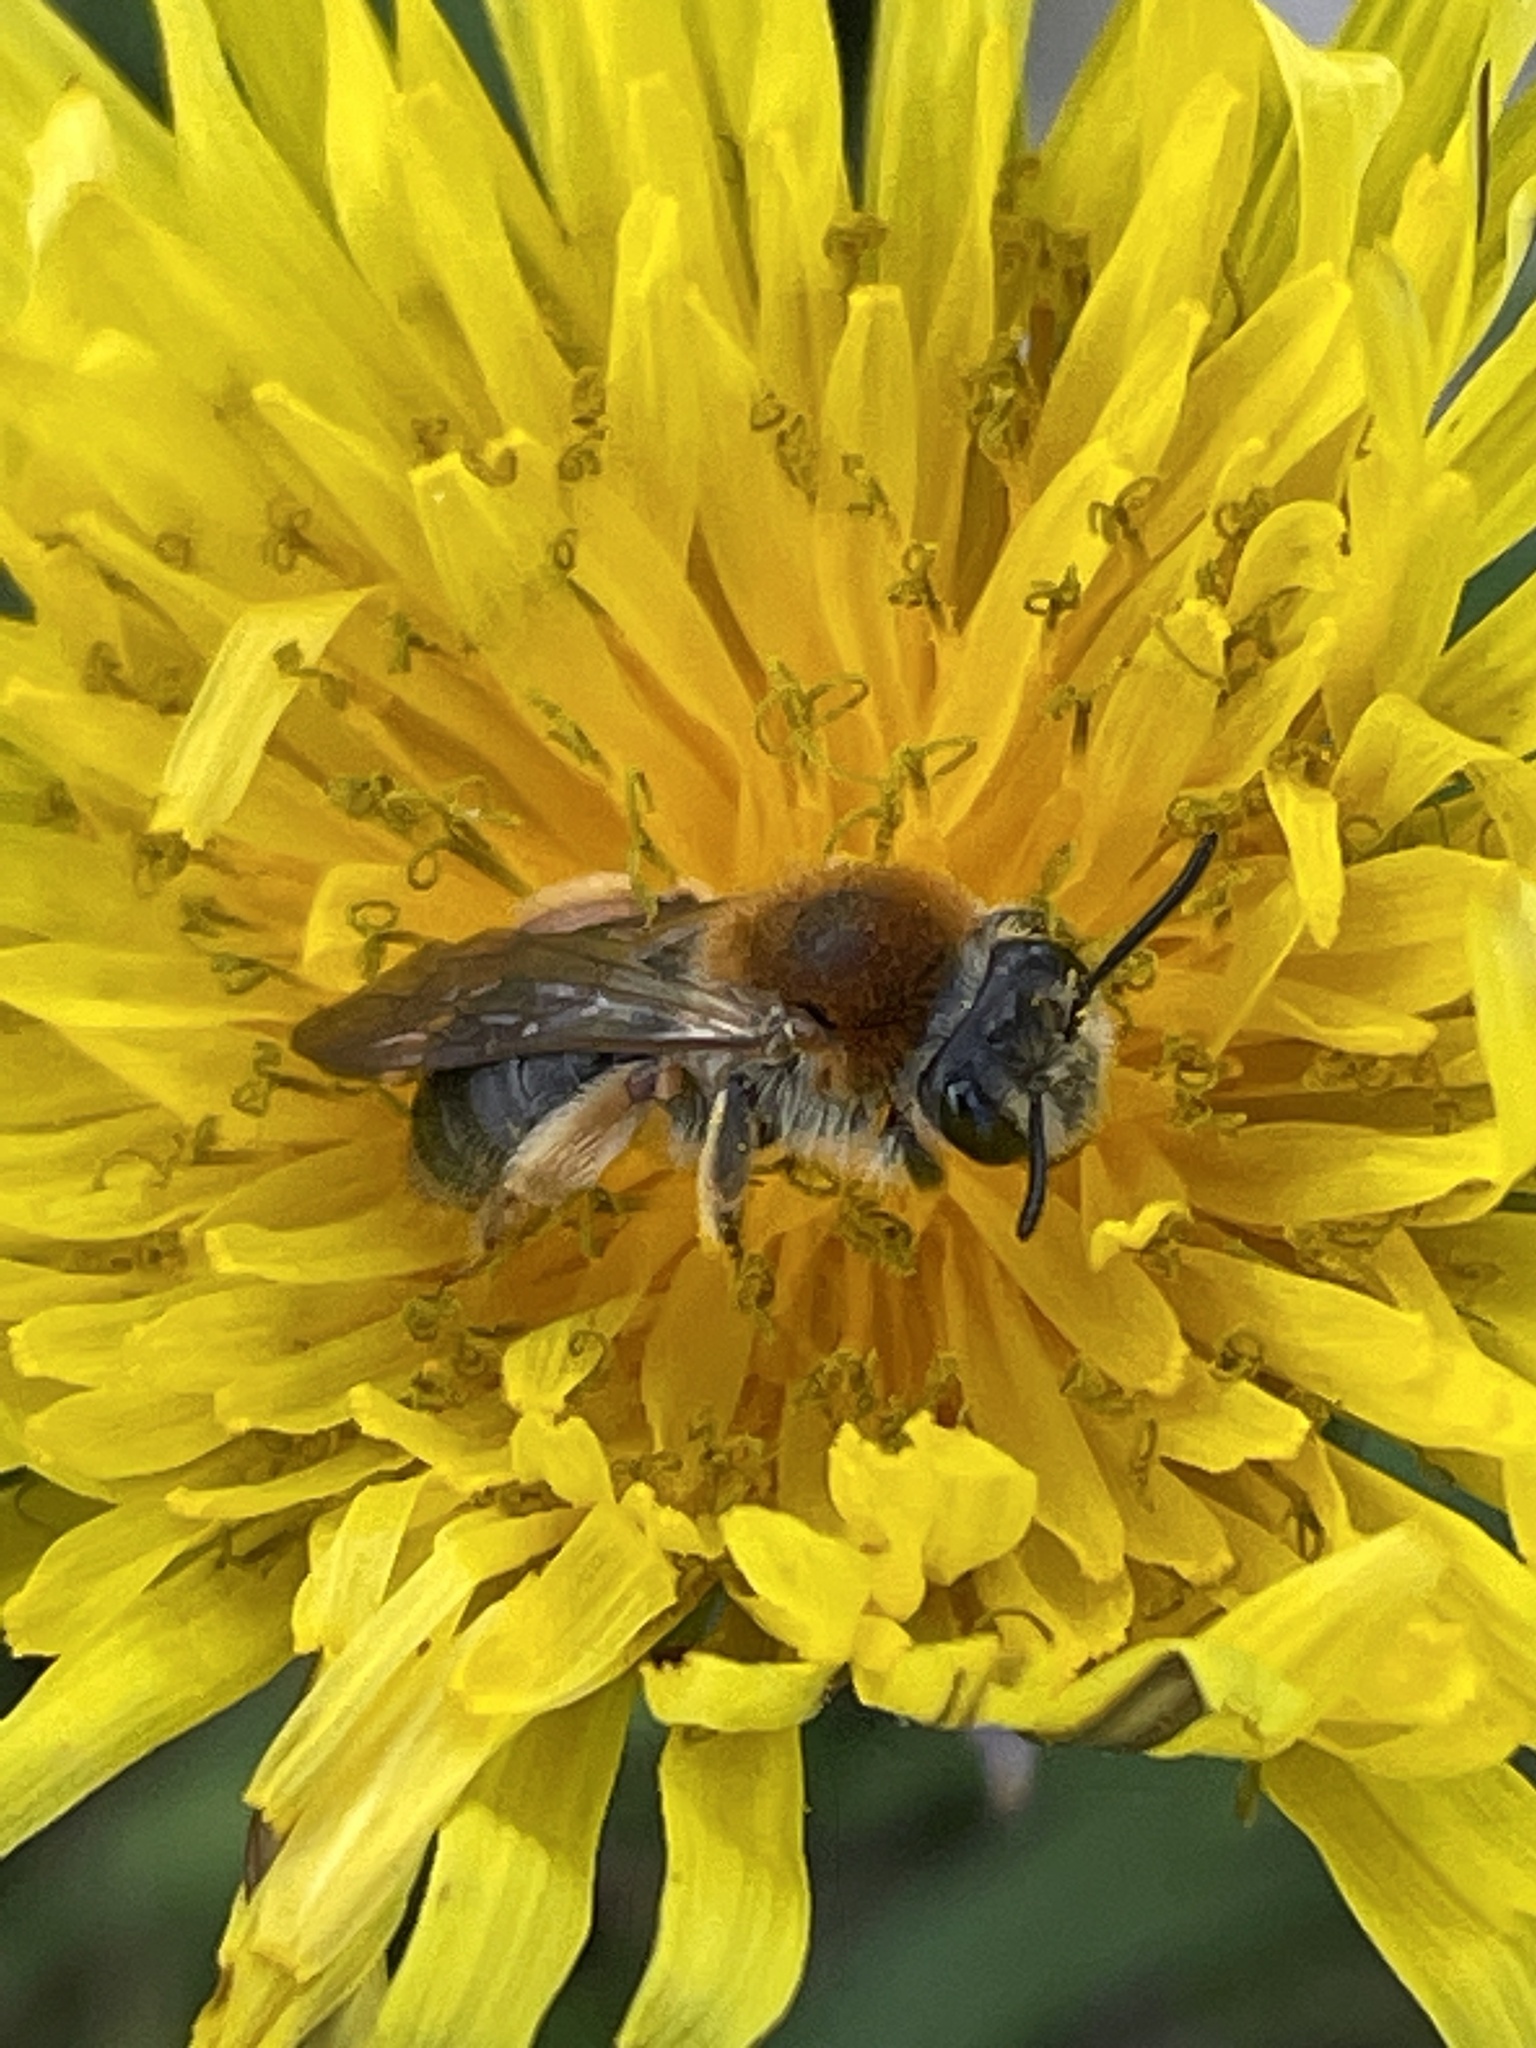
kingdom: Animalia
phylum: Arthropoda
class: Insecta
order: Hymenoptera
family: Andrenidae
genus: Andrena
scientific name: Andrena haemorrhoa
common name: Early mining bee
